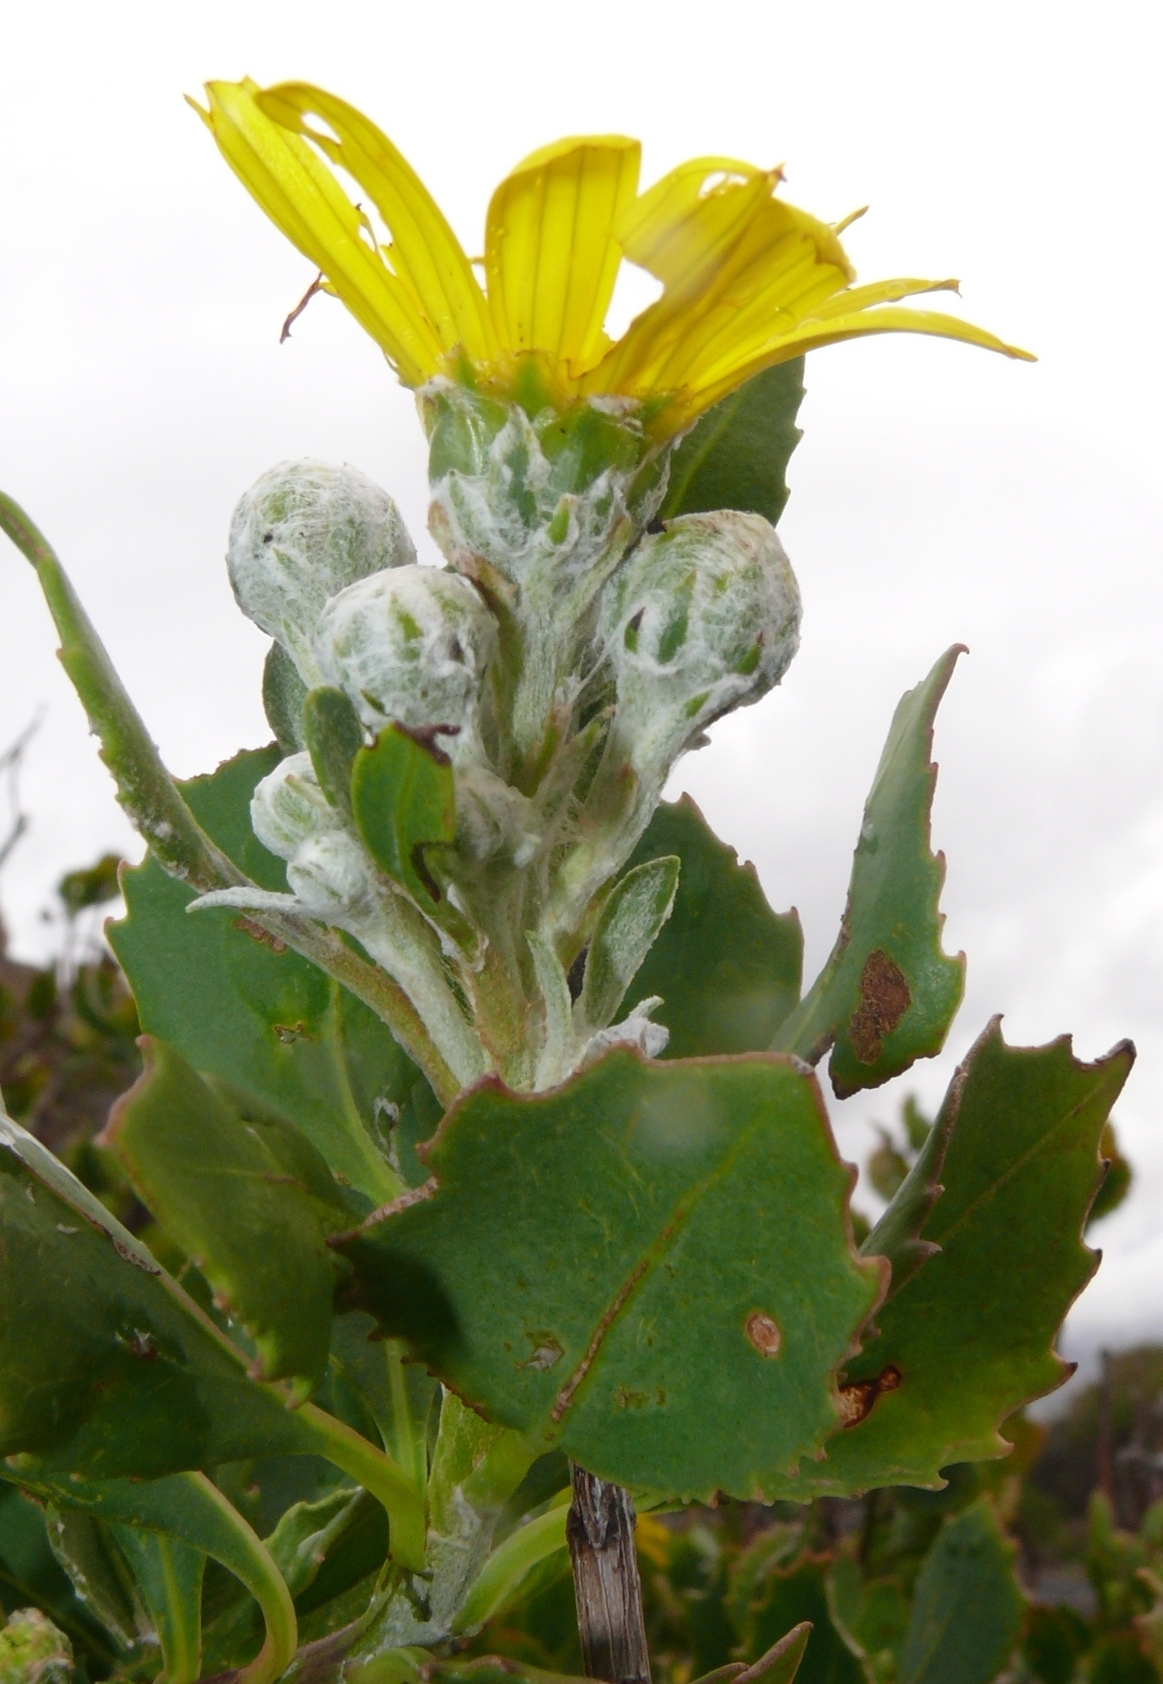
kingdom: Plantae
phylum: Tracheophyta
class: Magnoliopsida
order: Asterales
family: Asteraceae
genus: Osteospermum
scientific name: Osteospermum moniliferum
